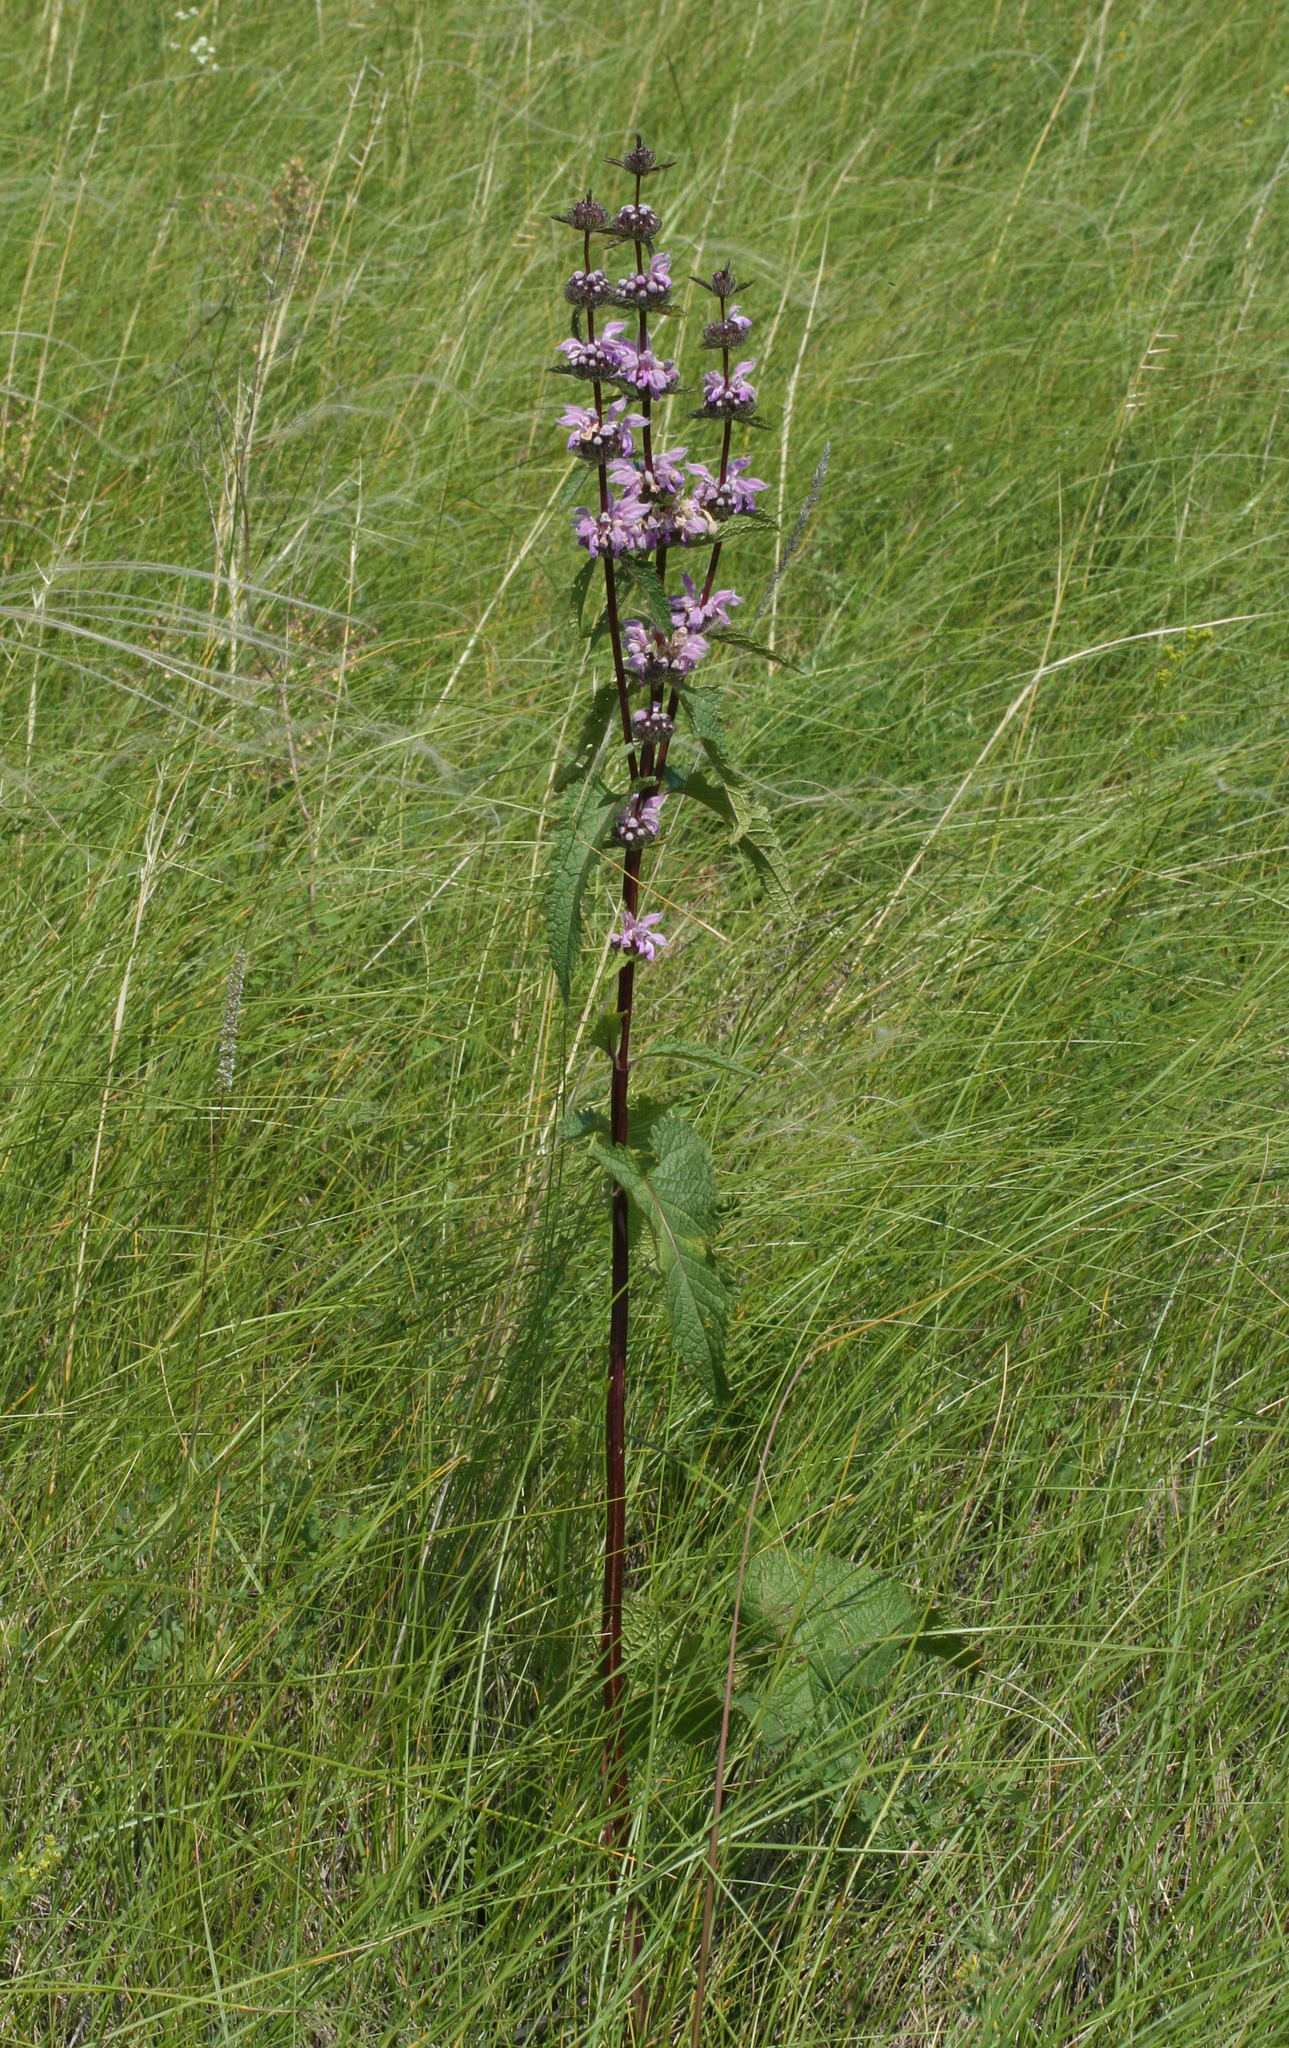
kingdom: Plantae
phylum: Tracheophyta
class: Magnoliopsida
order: Lamiales
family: Lamiaceae
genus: Phlomoides
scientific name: Phlomoides tuberosa
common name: Tuberous jerusalem sage
